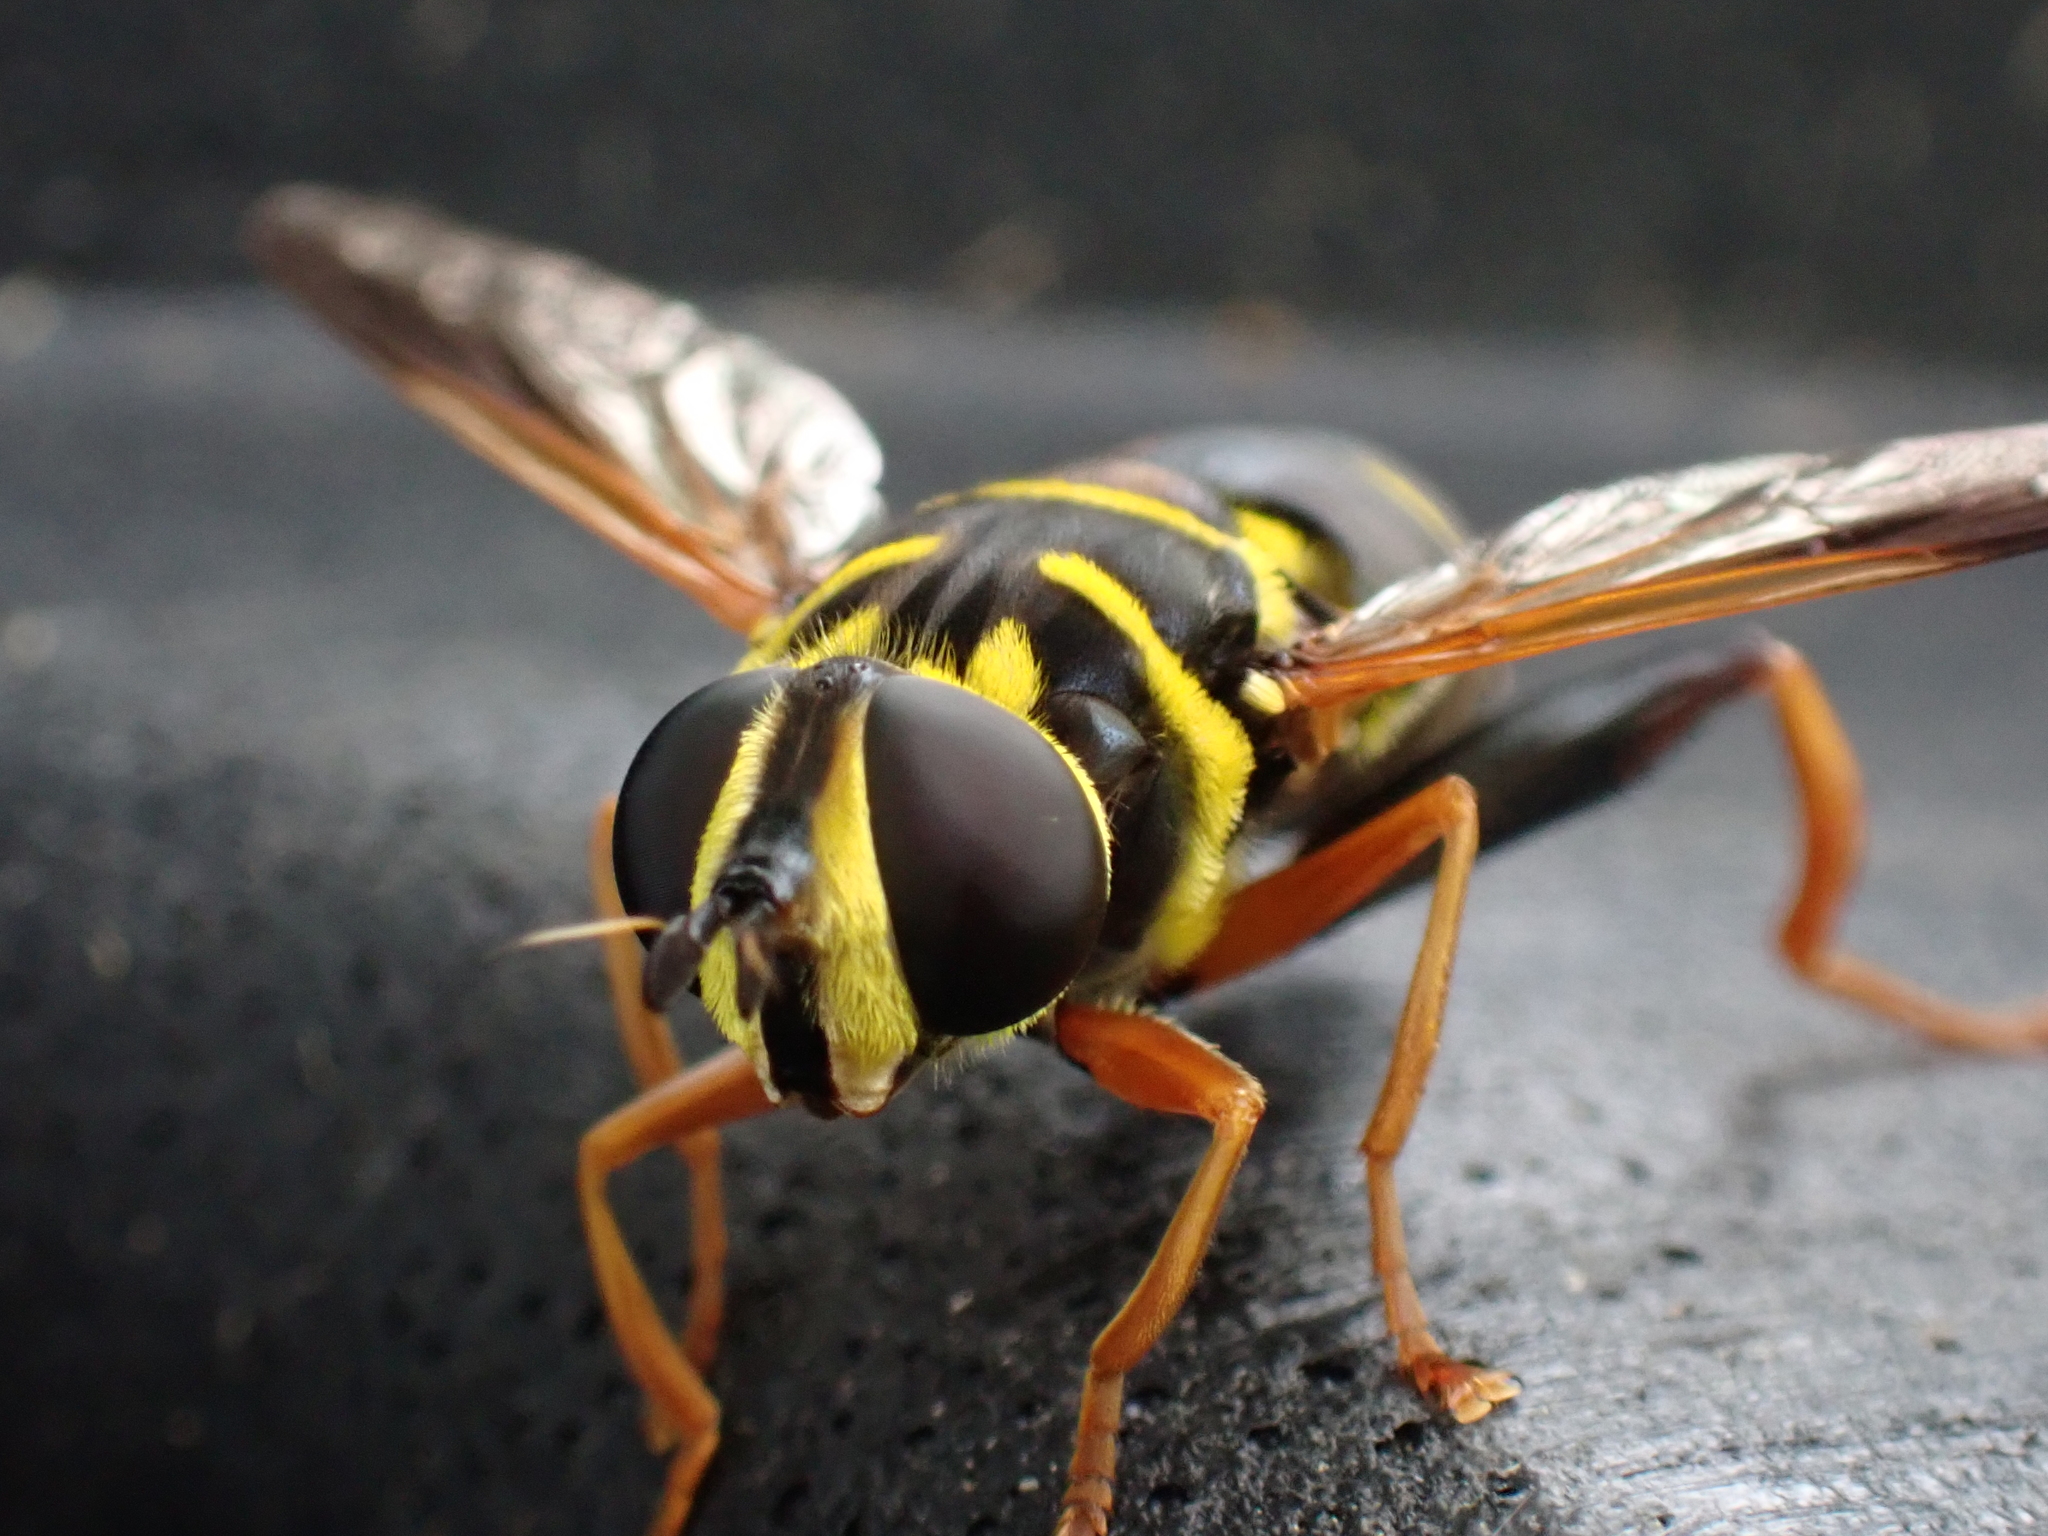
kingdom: Animalia
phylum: Arthropoda
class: Insecta
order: Diptera
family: Syrphidae
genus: Meromacrus
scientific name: Meromacrus acutus
